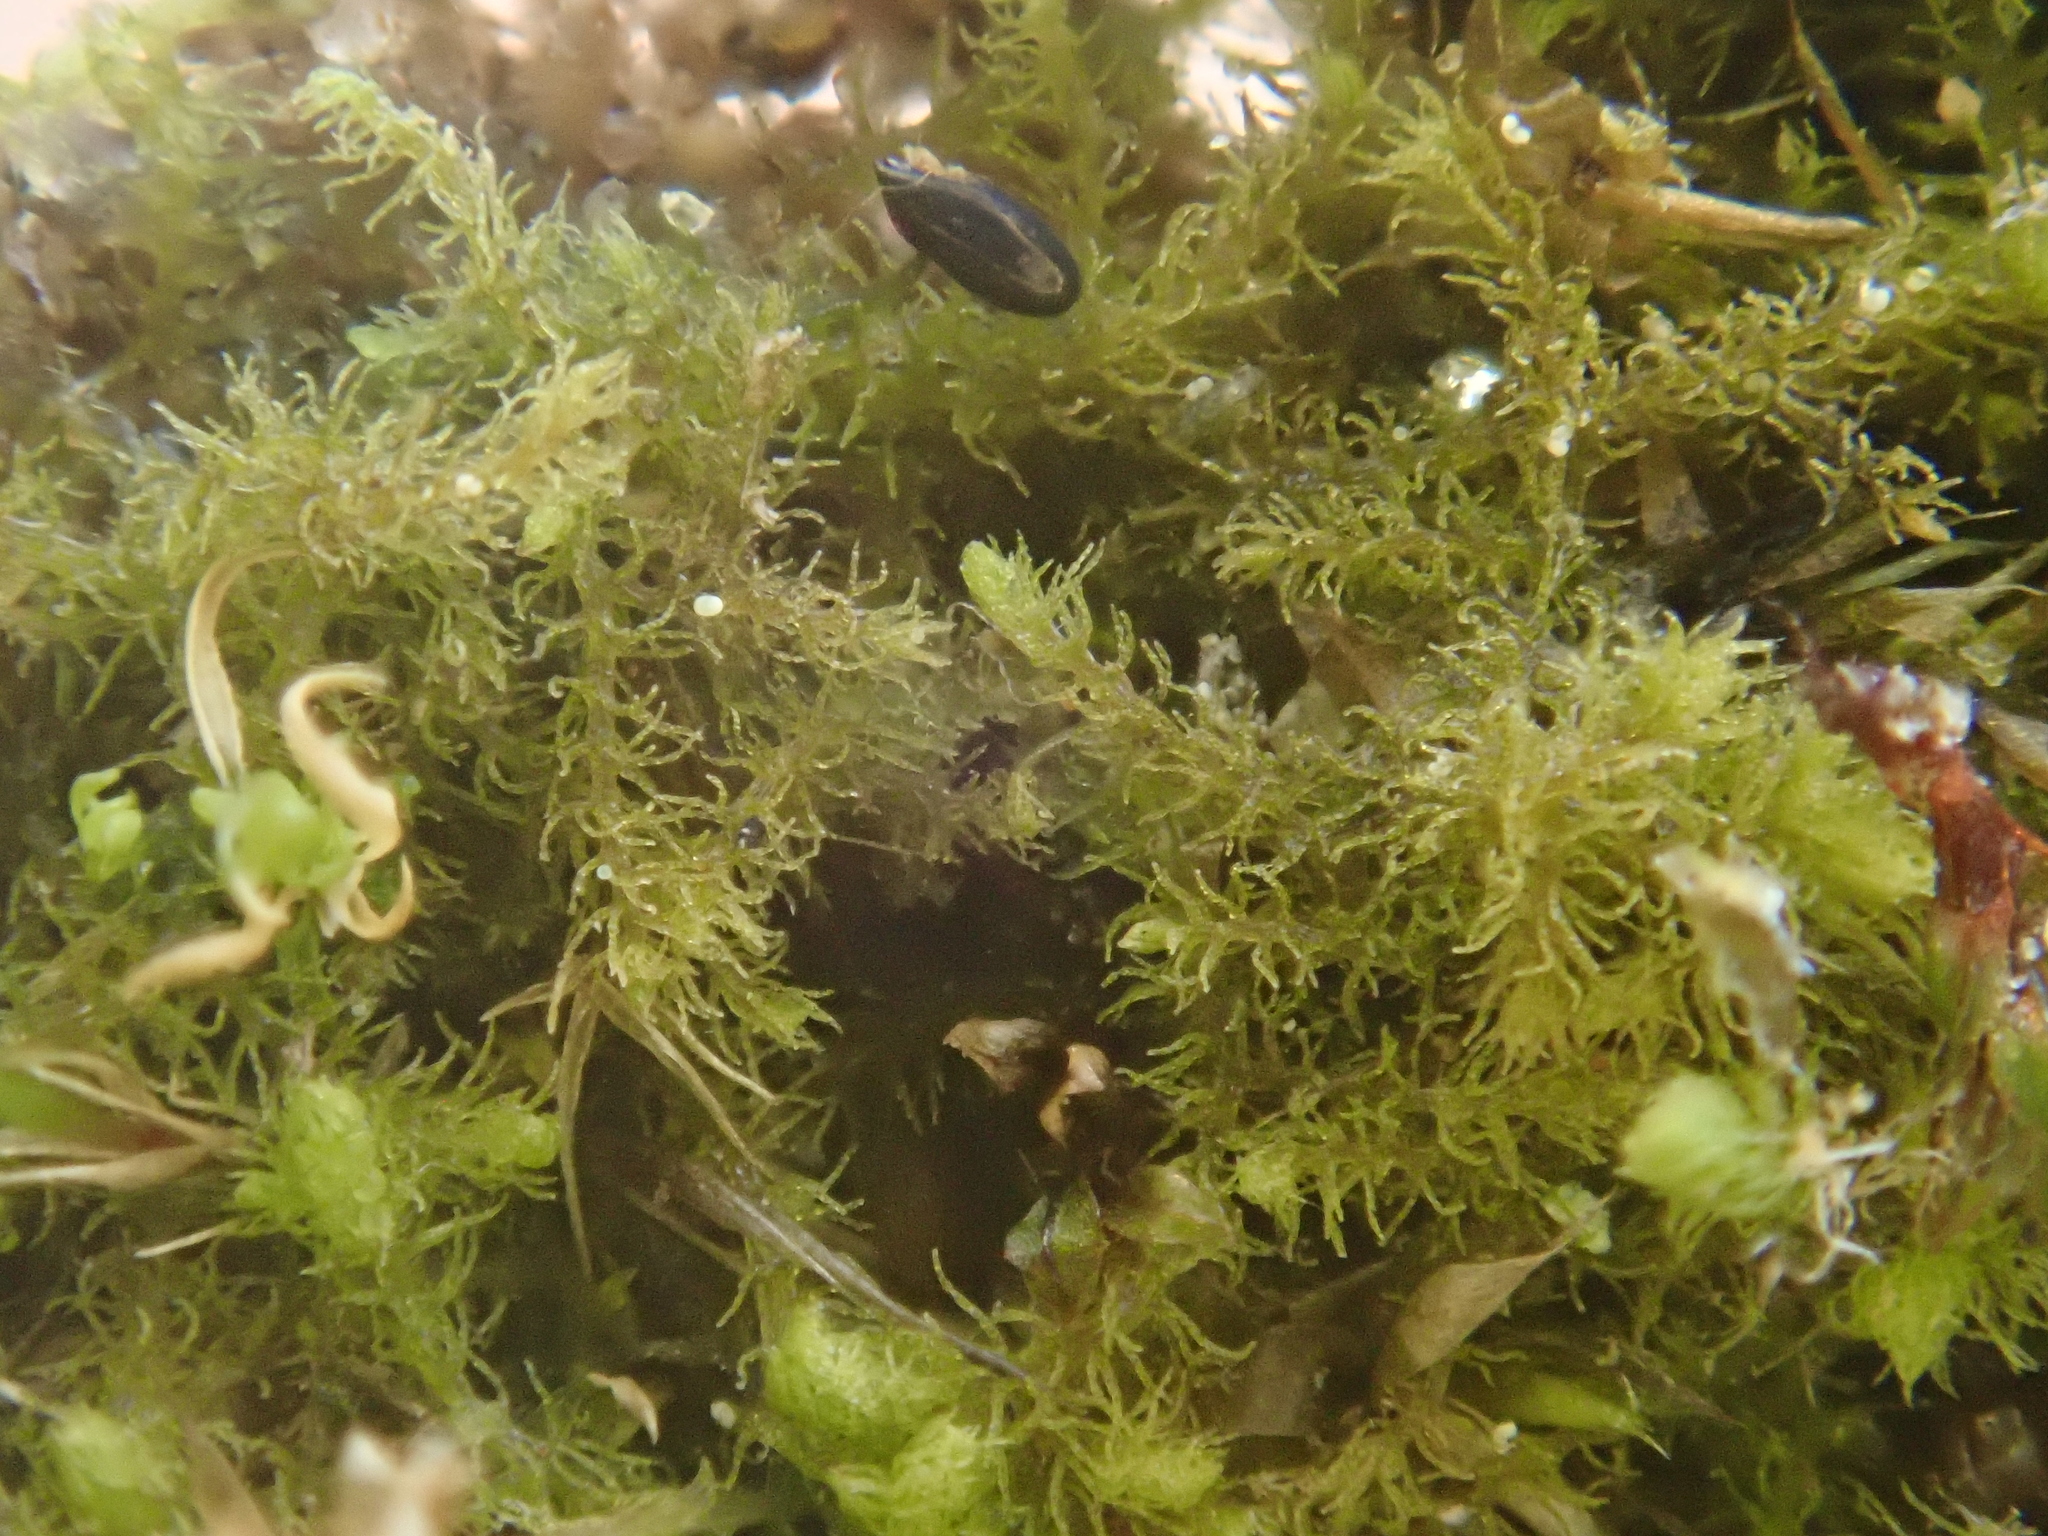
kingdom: Plantae
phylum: Marchantiophyta
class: Jungermanniopsida
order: Jungermanniales
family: Blepharostomataceae
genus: Blepharostoma
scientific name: Blepharostoma trichophyllum
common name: Hairy threadwort
